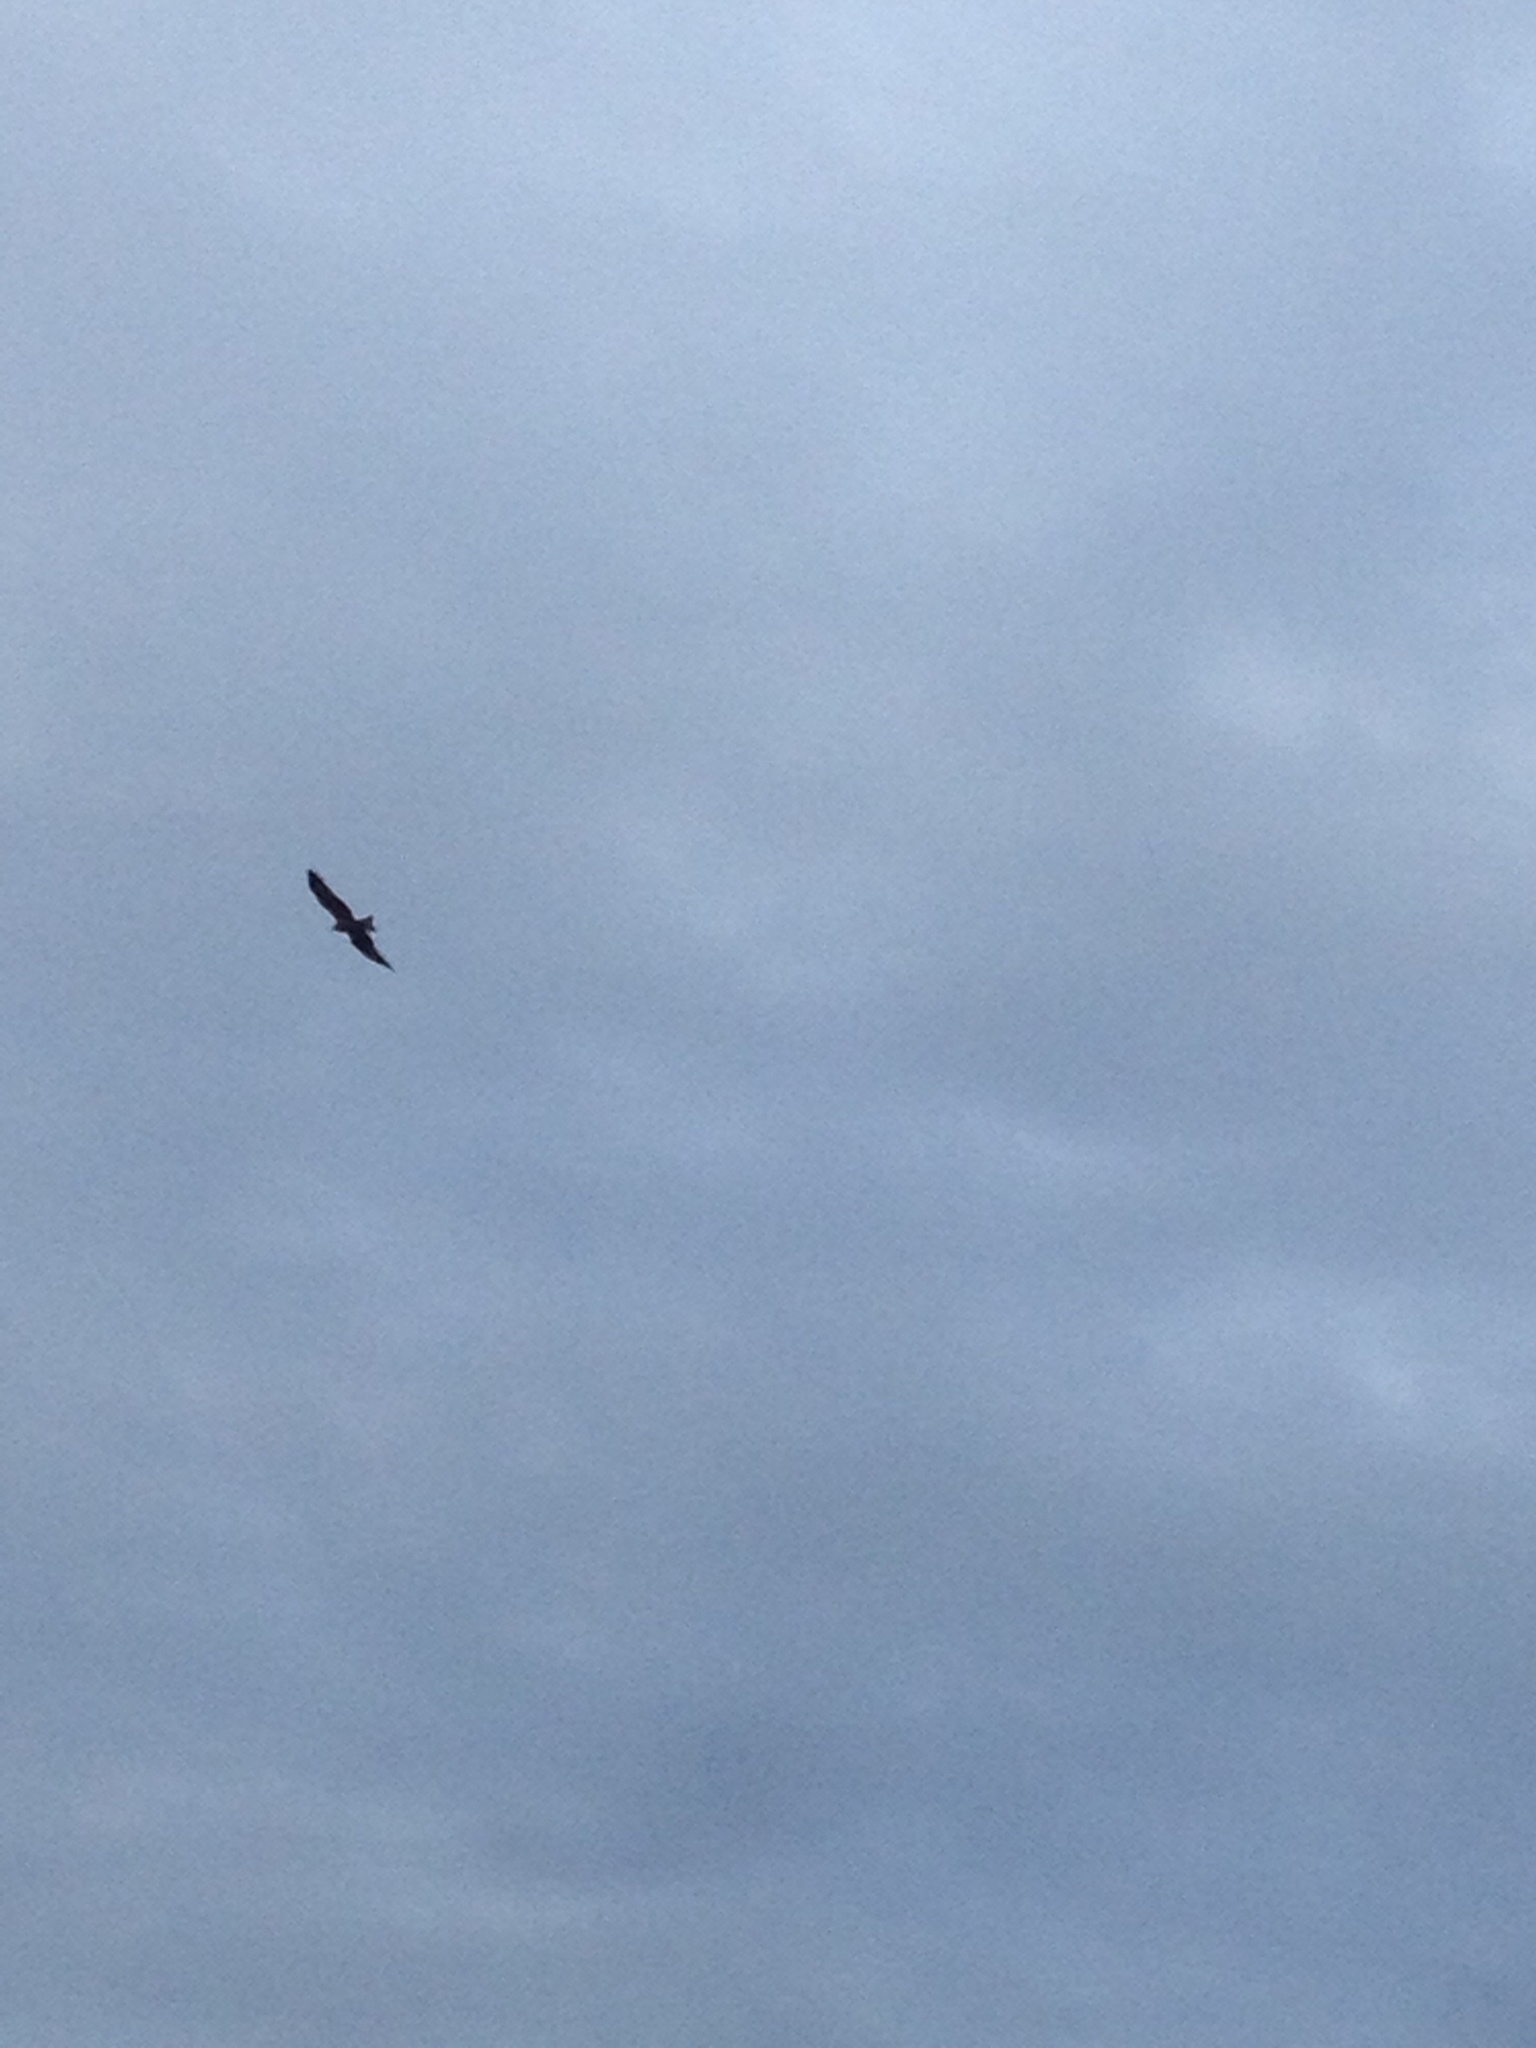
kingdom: Animalia
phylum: Chordata
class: Aves
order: Accipitriformes
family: Accipitridae
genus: Milvus
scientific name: Milvus migrans
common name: Black kite
